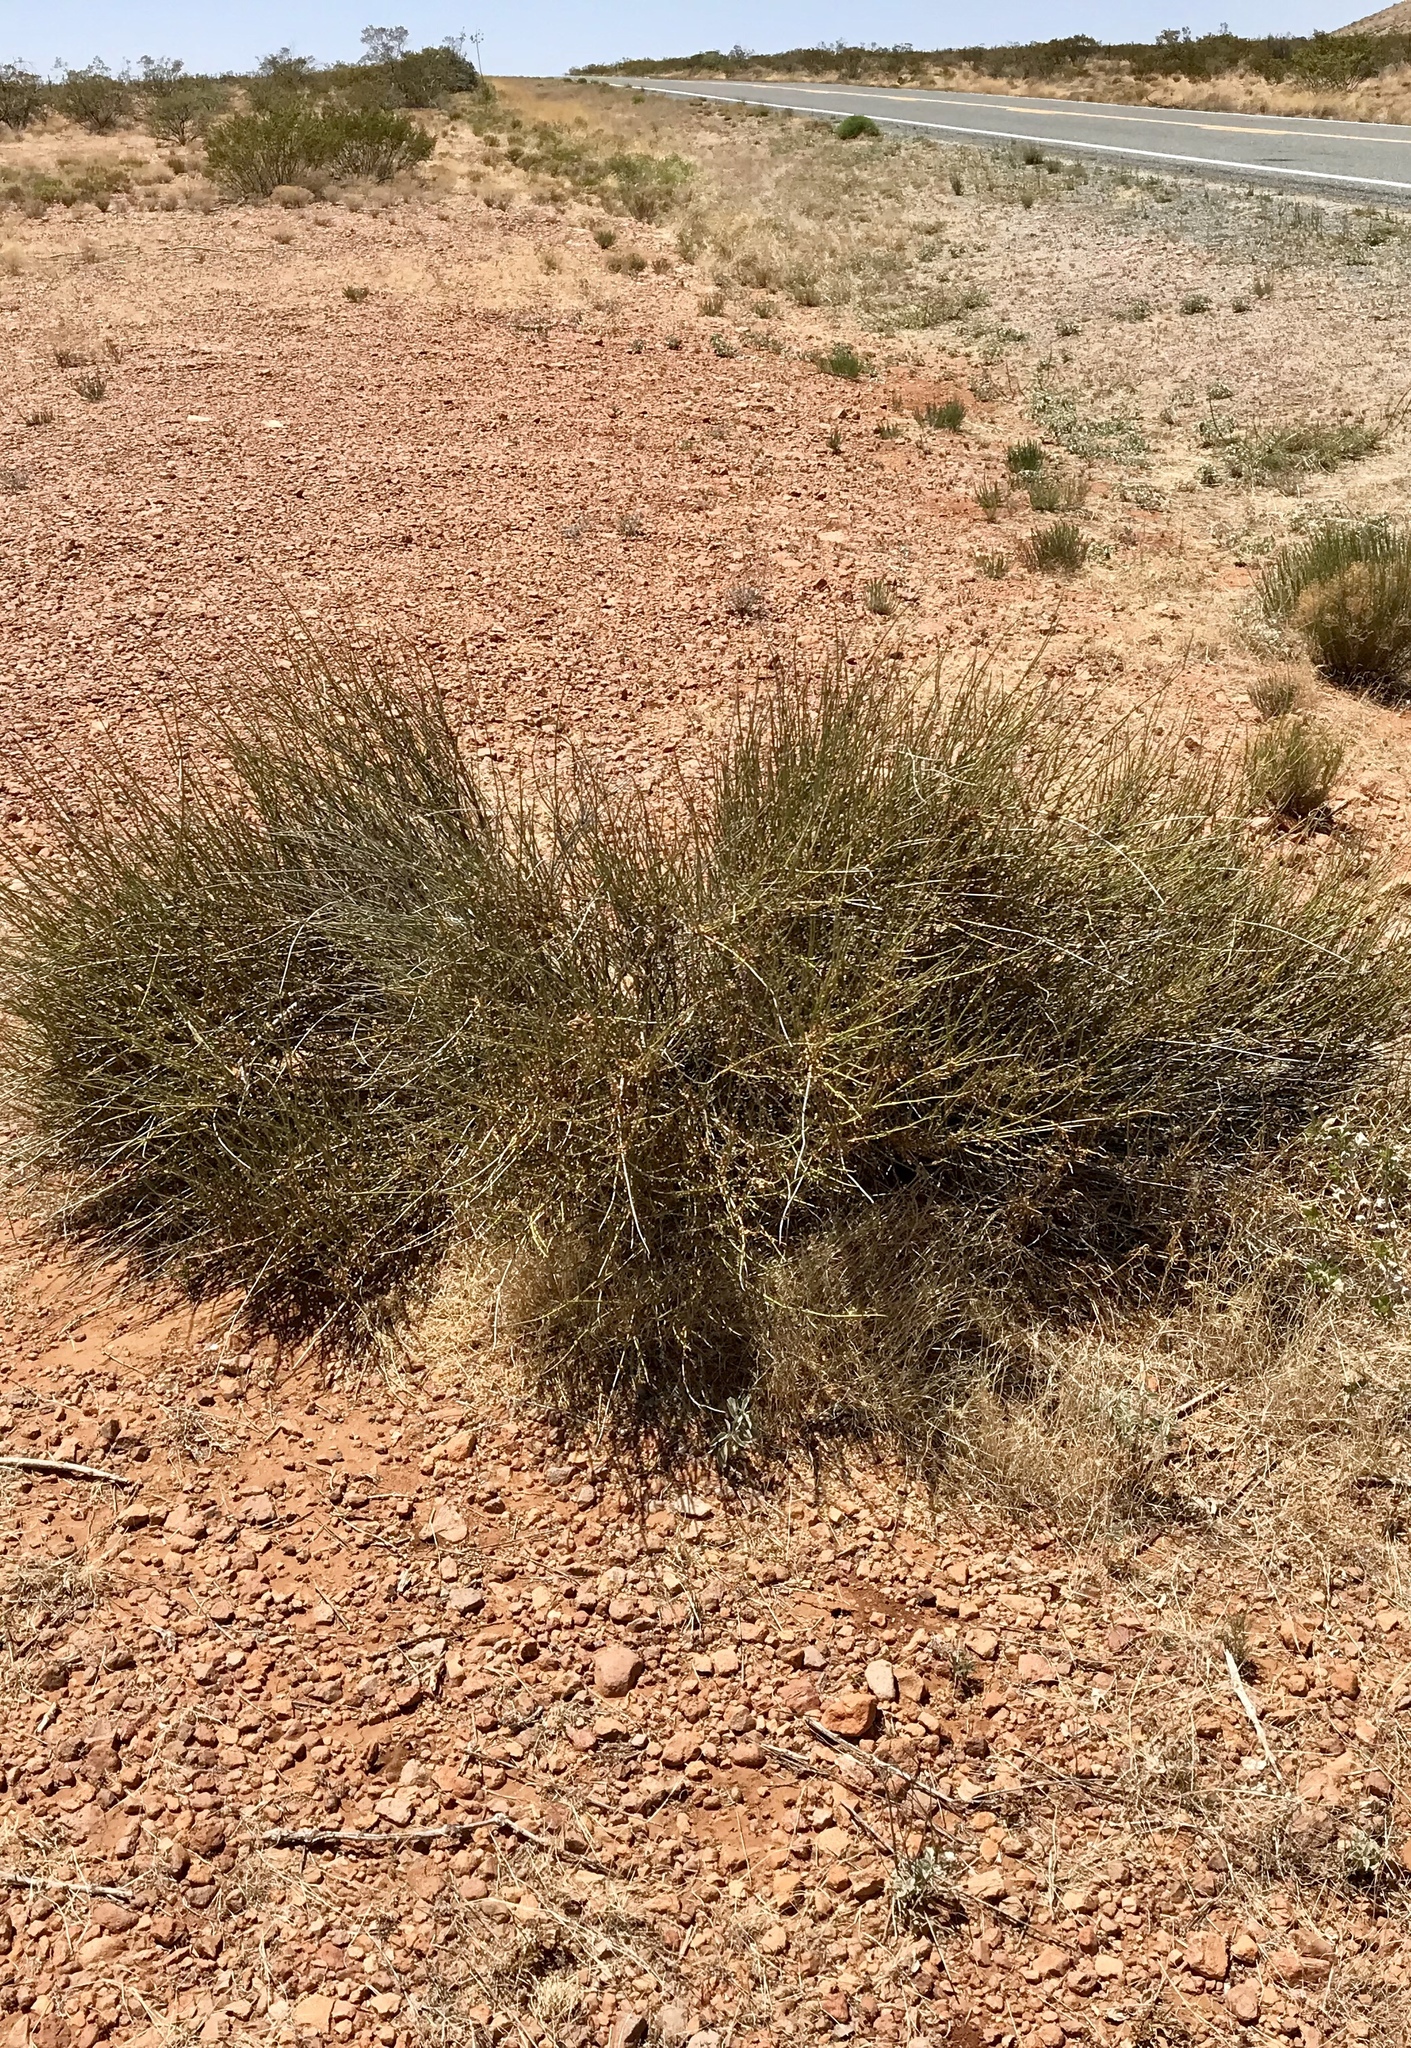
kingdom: Plantae
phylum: Tracheophyta
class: Gnetopsida
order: Ephedrales
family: Ephedraceae
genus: Ephedra
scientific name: Ephedra trifurca
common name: Mexican-tea
